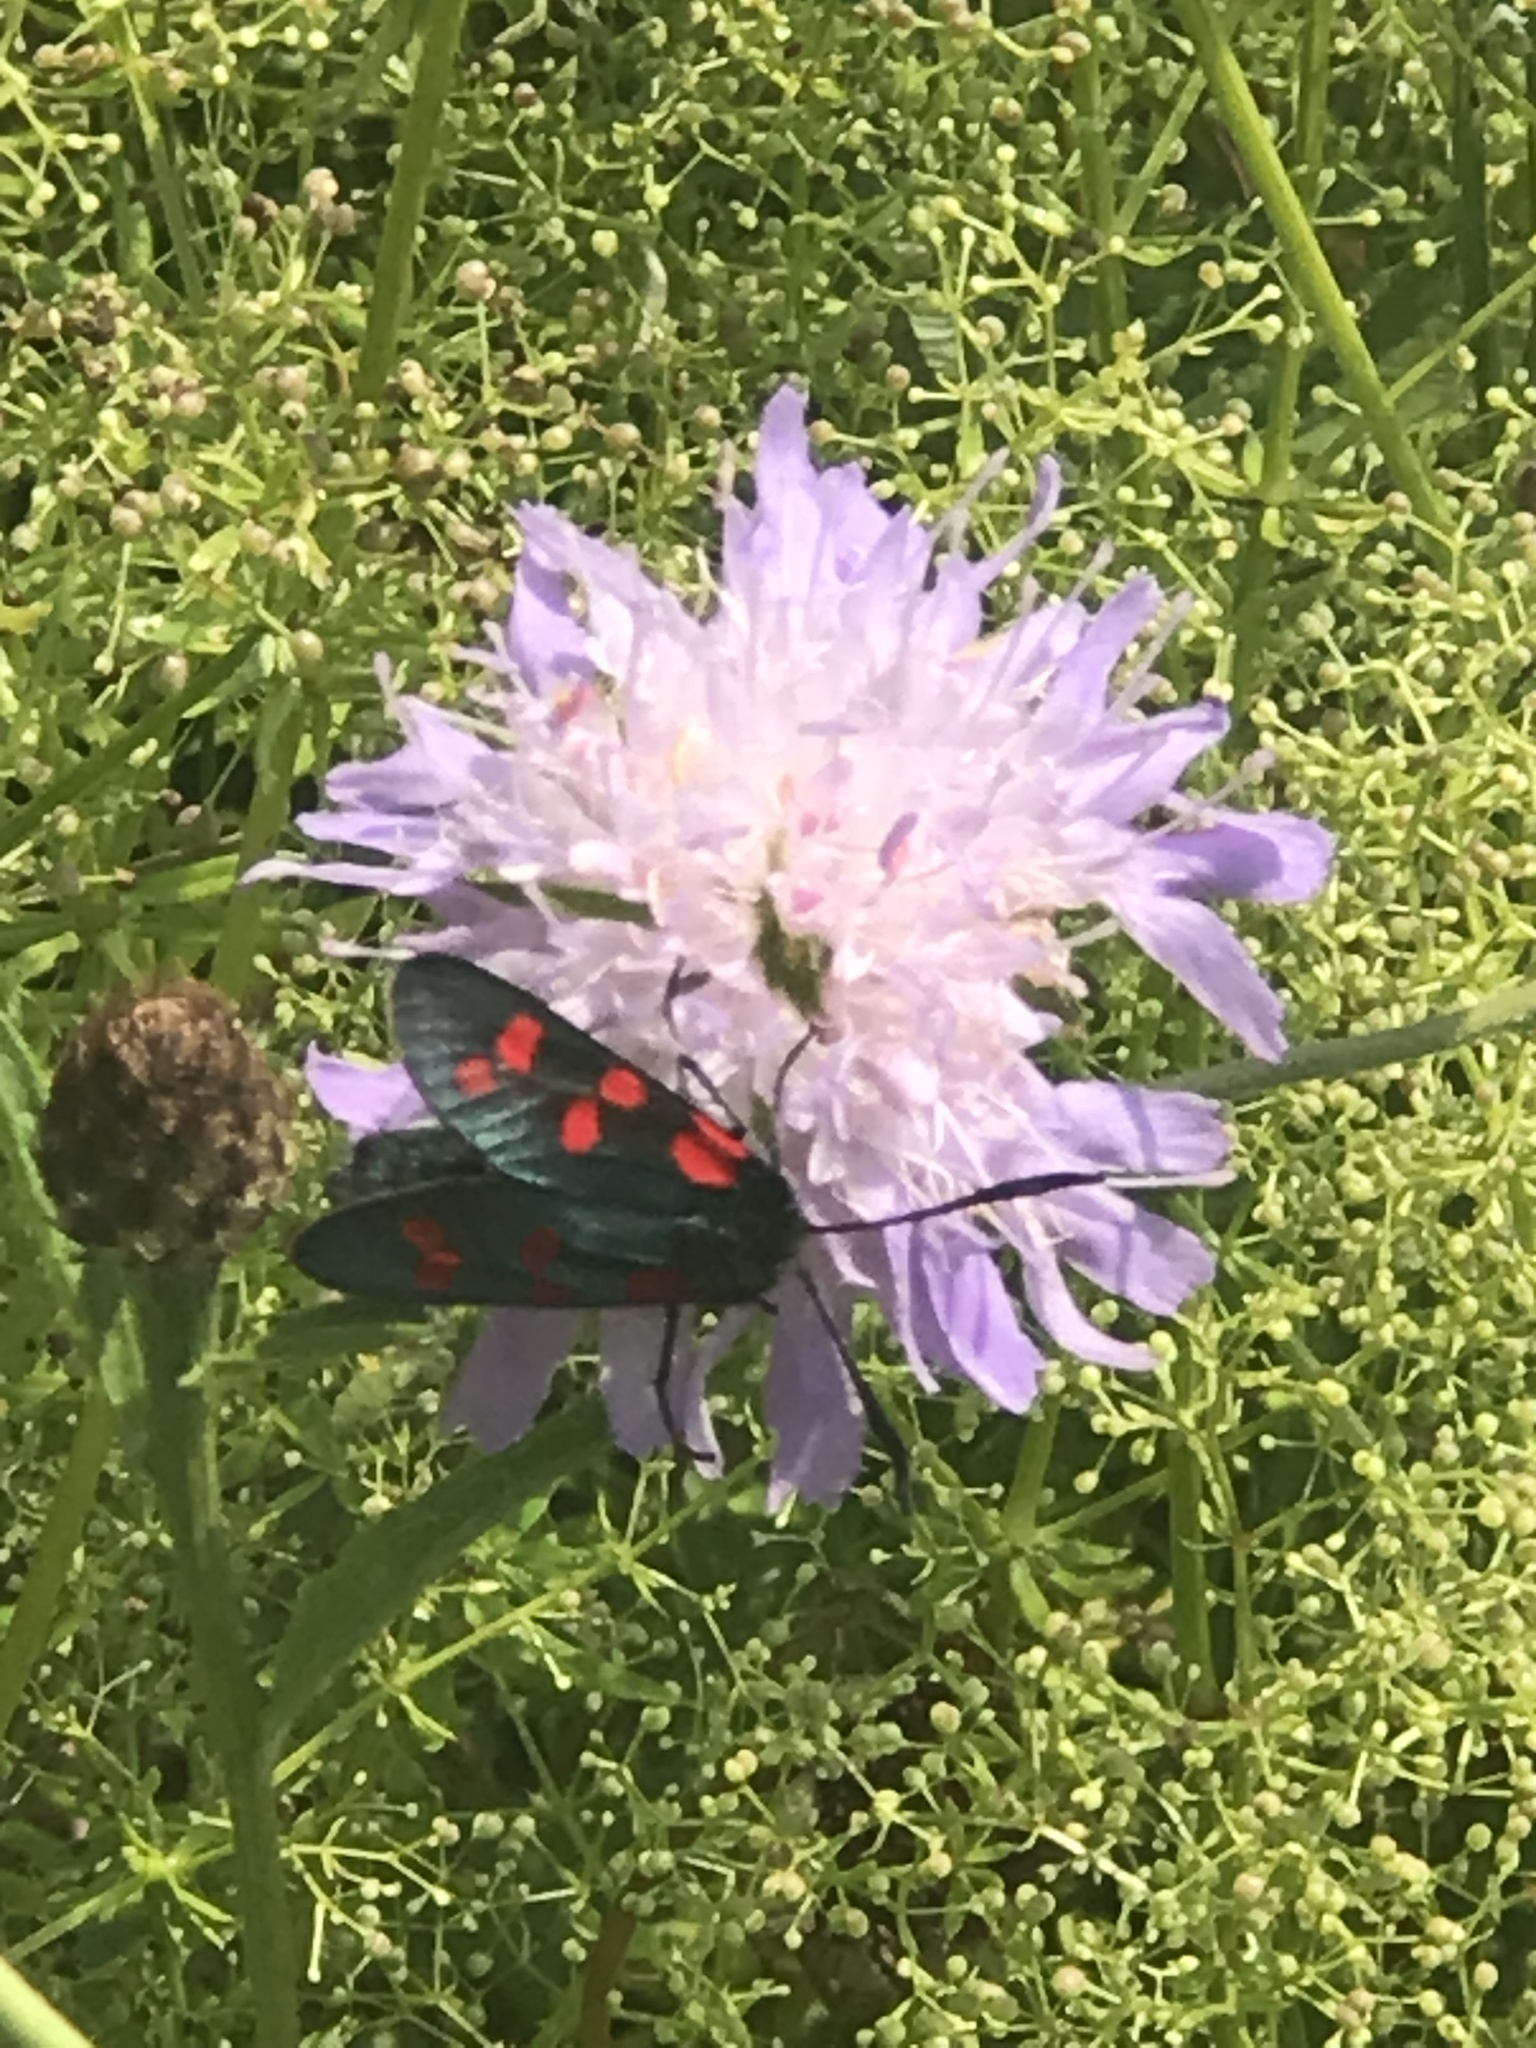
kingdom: Animalia
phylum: Arthropoda
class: Insecta
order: Lepidoptera
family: Zygaenidae
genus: Zygaena
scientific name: Zygaena filipendulae
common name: Six-spot burnet
